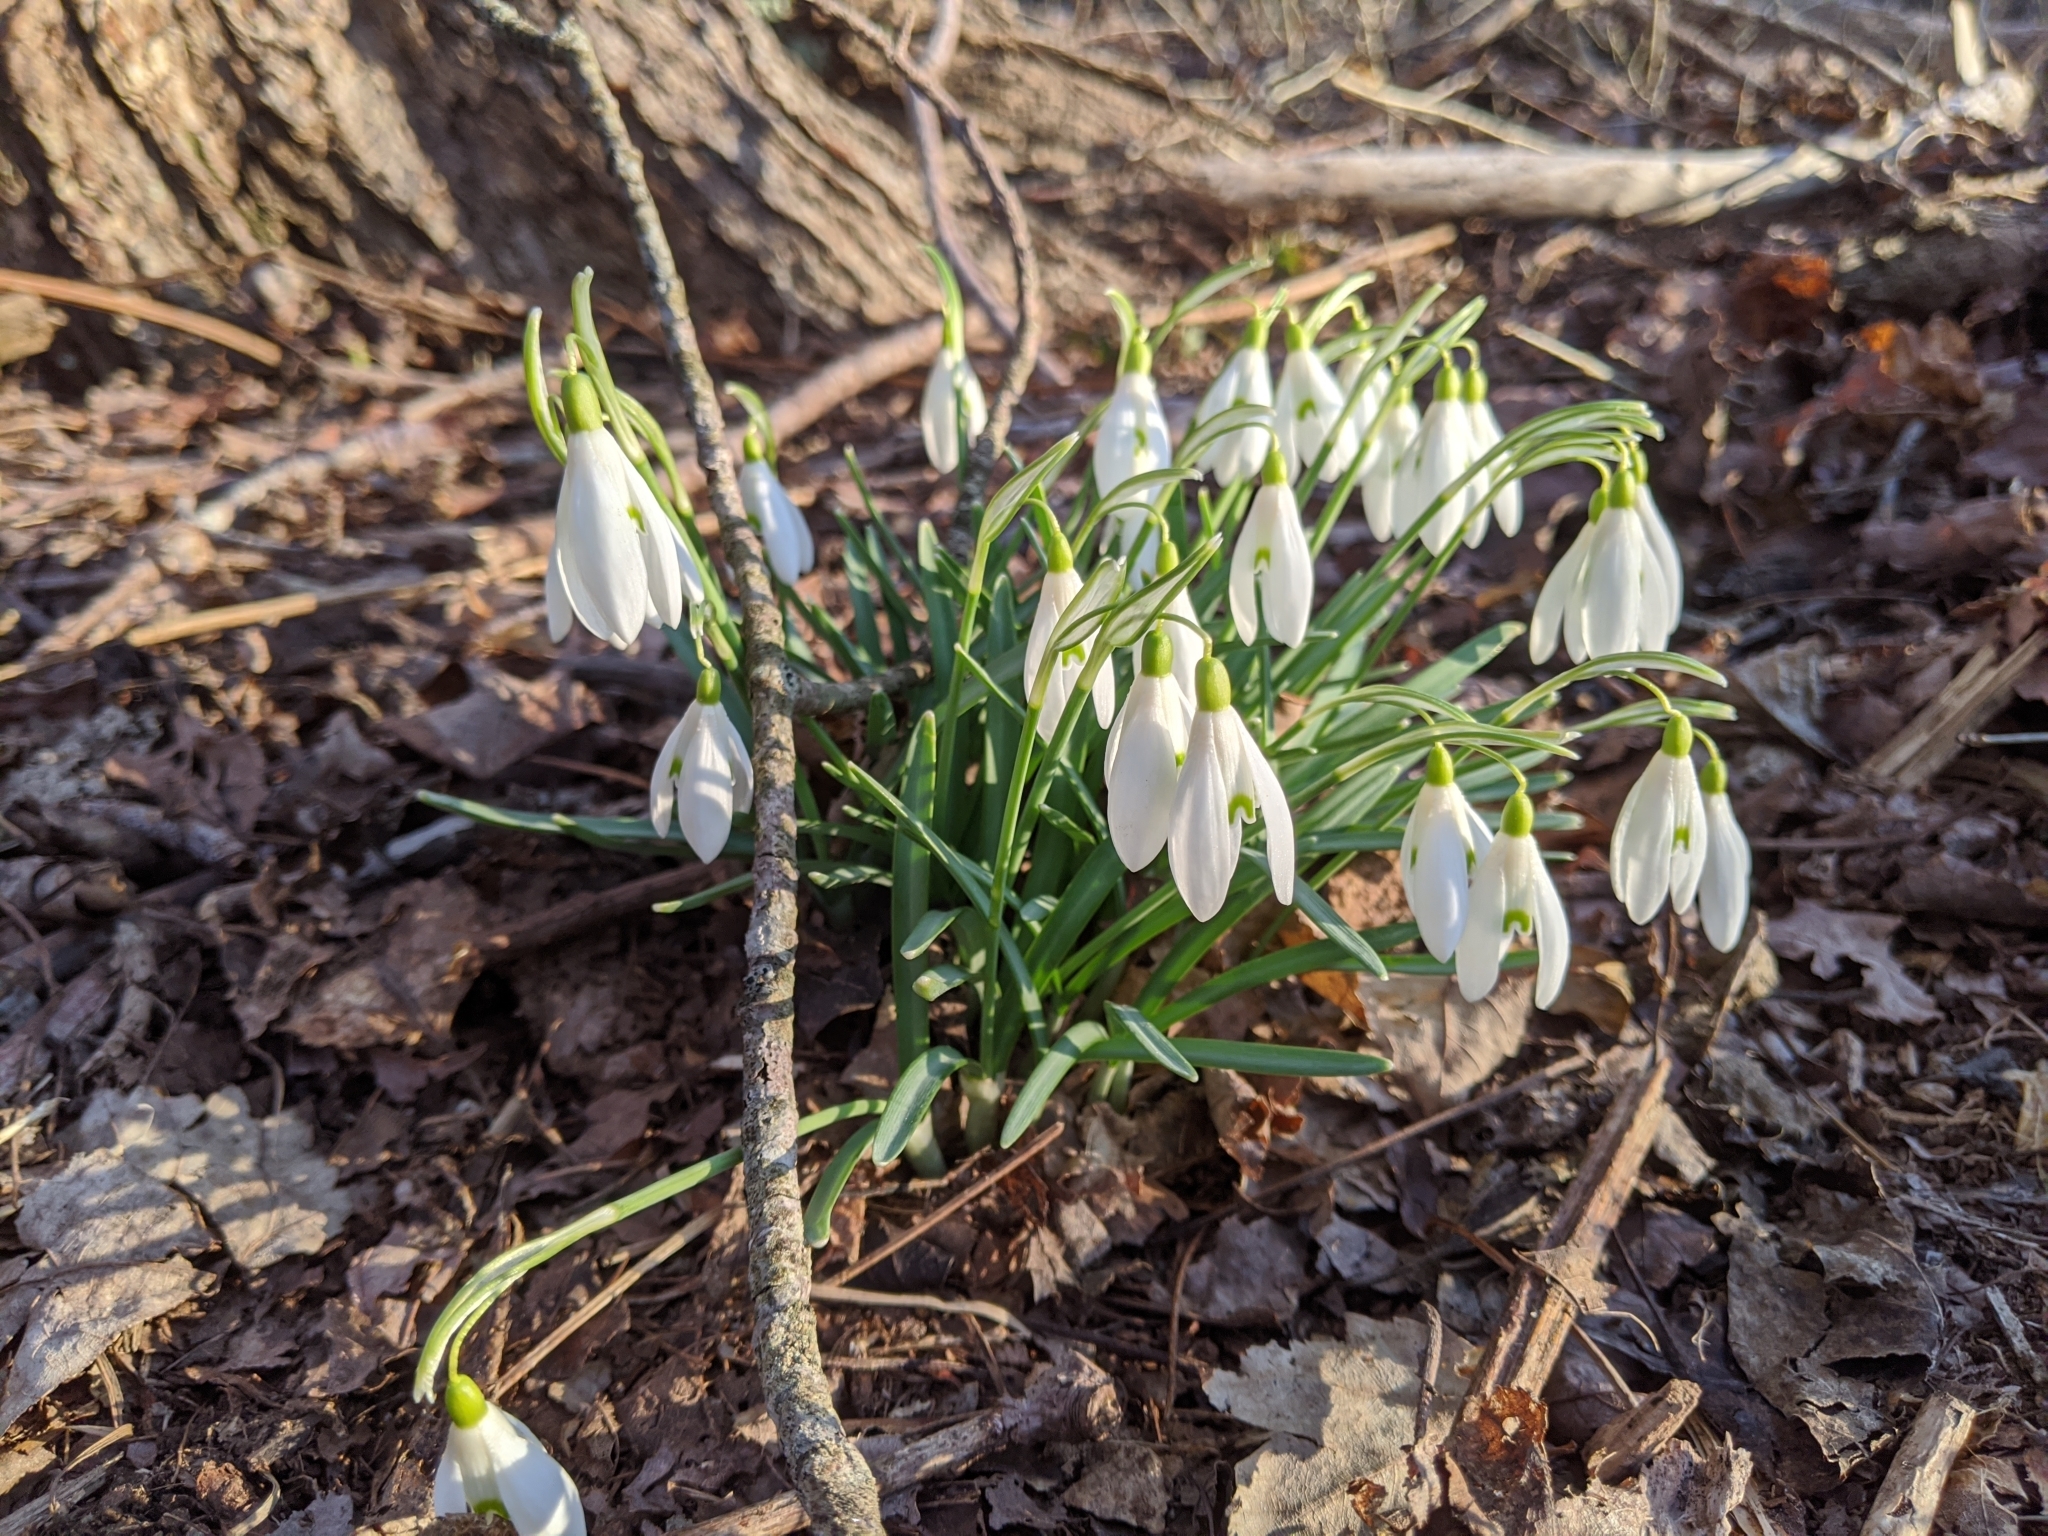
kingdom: Plantae
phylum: Tracheophyta
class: Liliopsida
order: Asparagales
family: Amaryllidaceae
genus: Galanthus
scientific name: Galanthus nivalis
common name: Snowdrop
